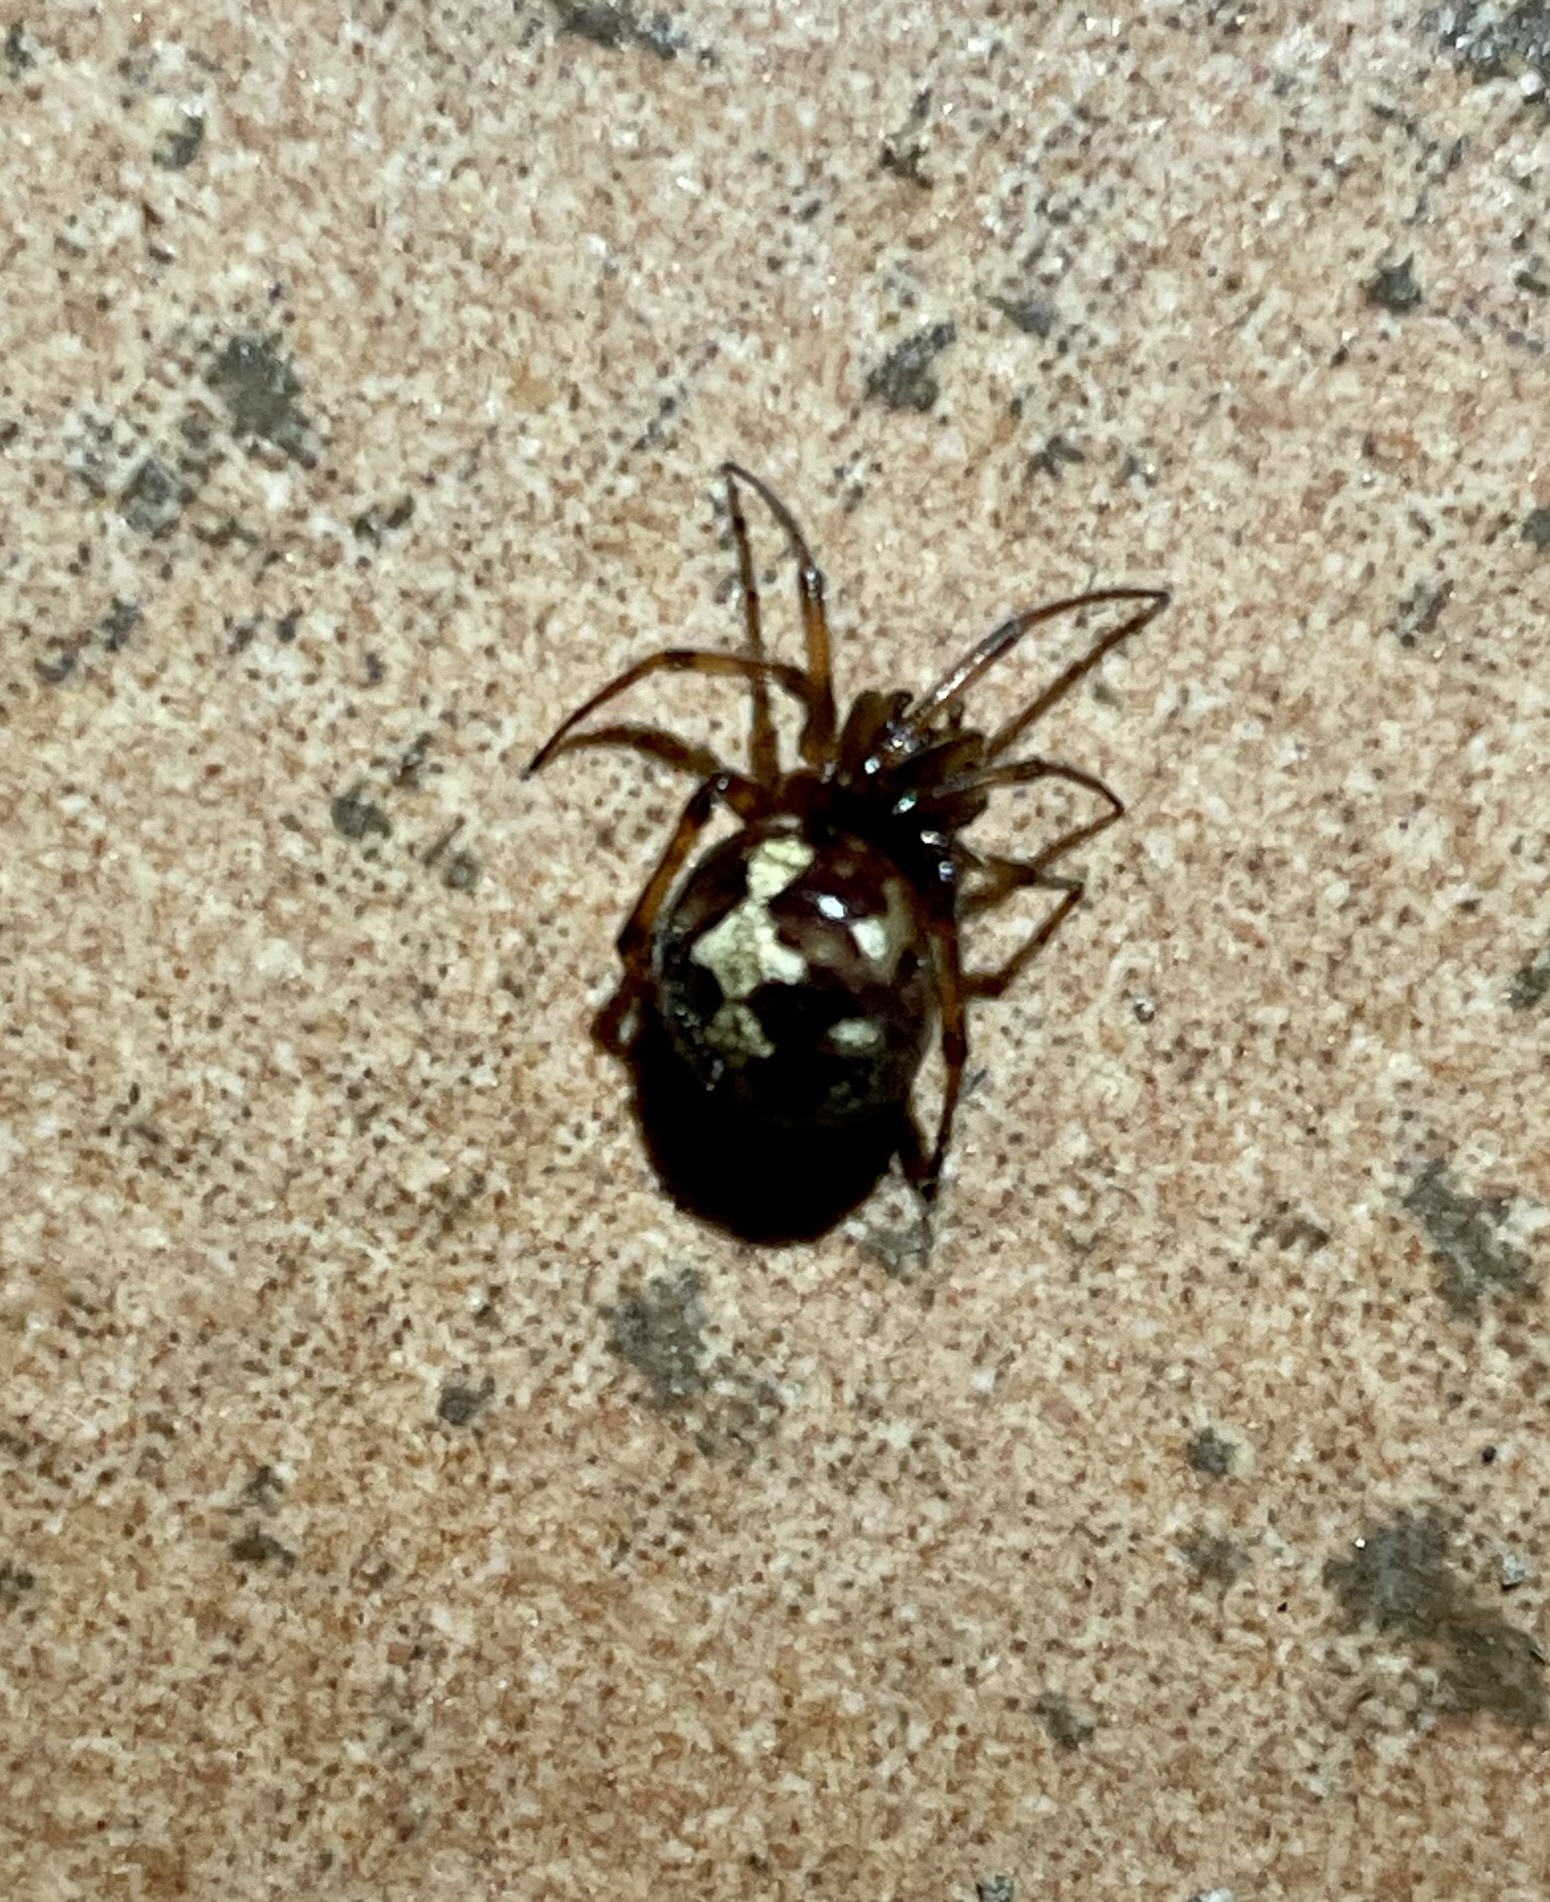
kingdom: Animalia
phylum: Arthropoda
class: Arachnida
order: Araneae
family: Theridiidae
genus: Steatoda
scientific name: Steatoda triangulosa
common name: Triangulate bud spider
